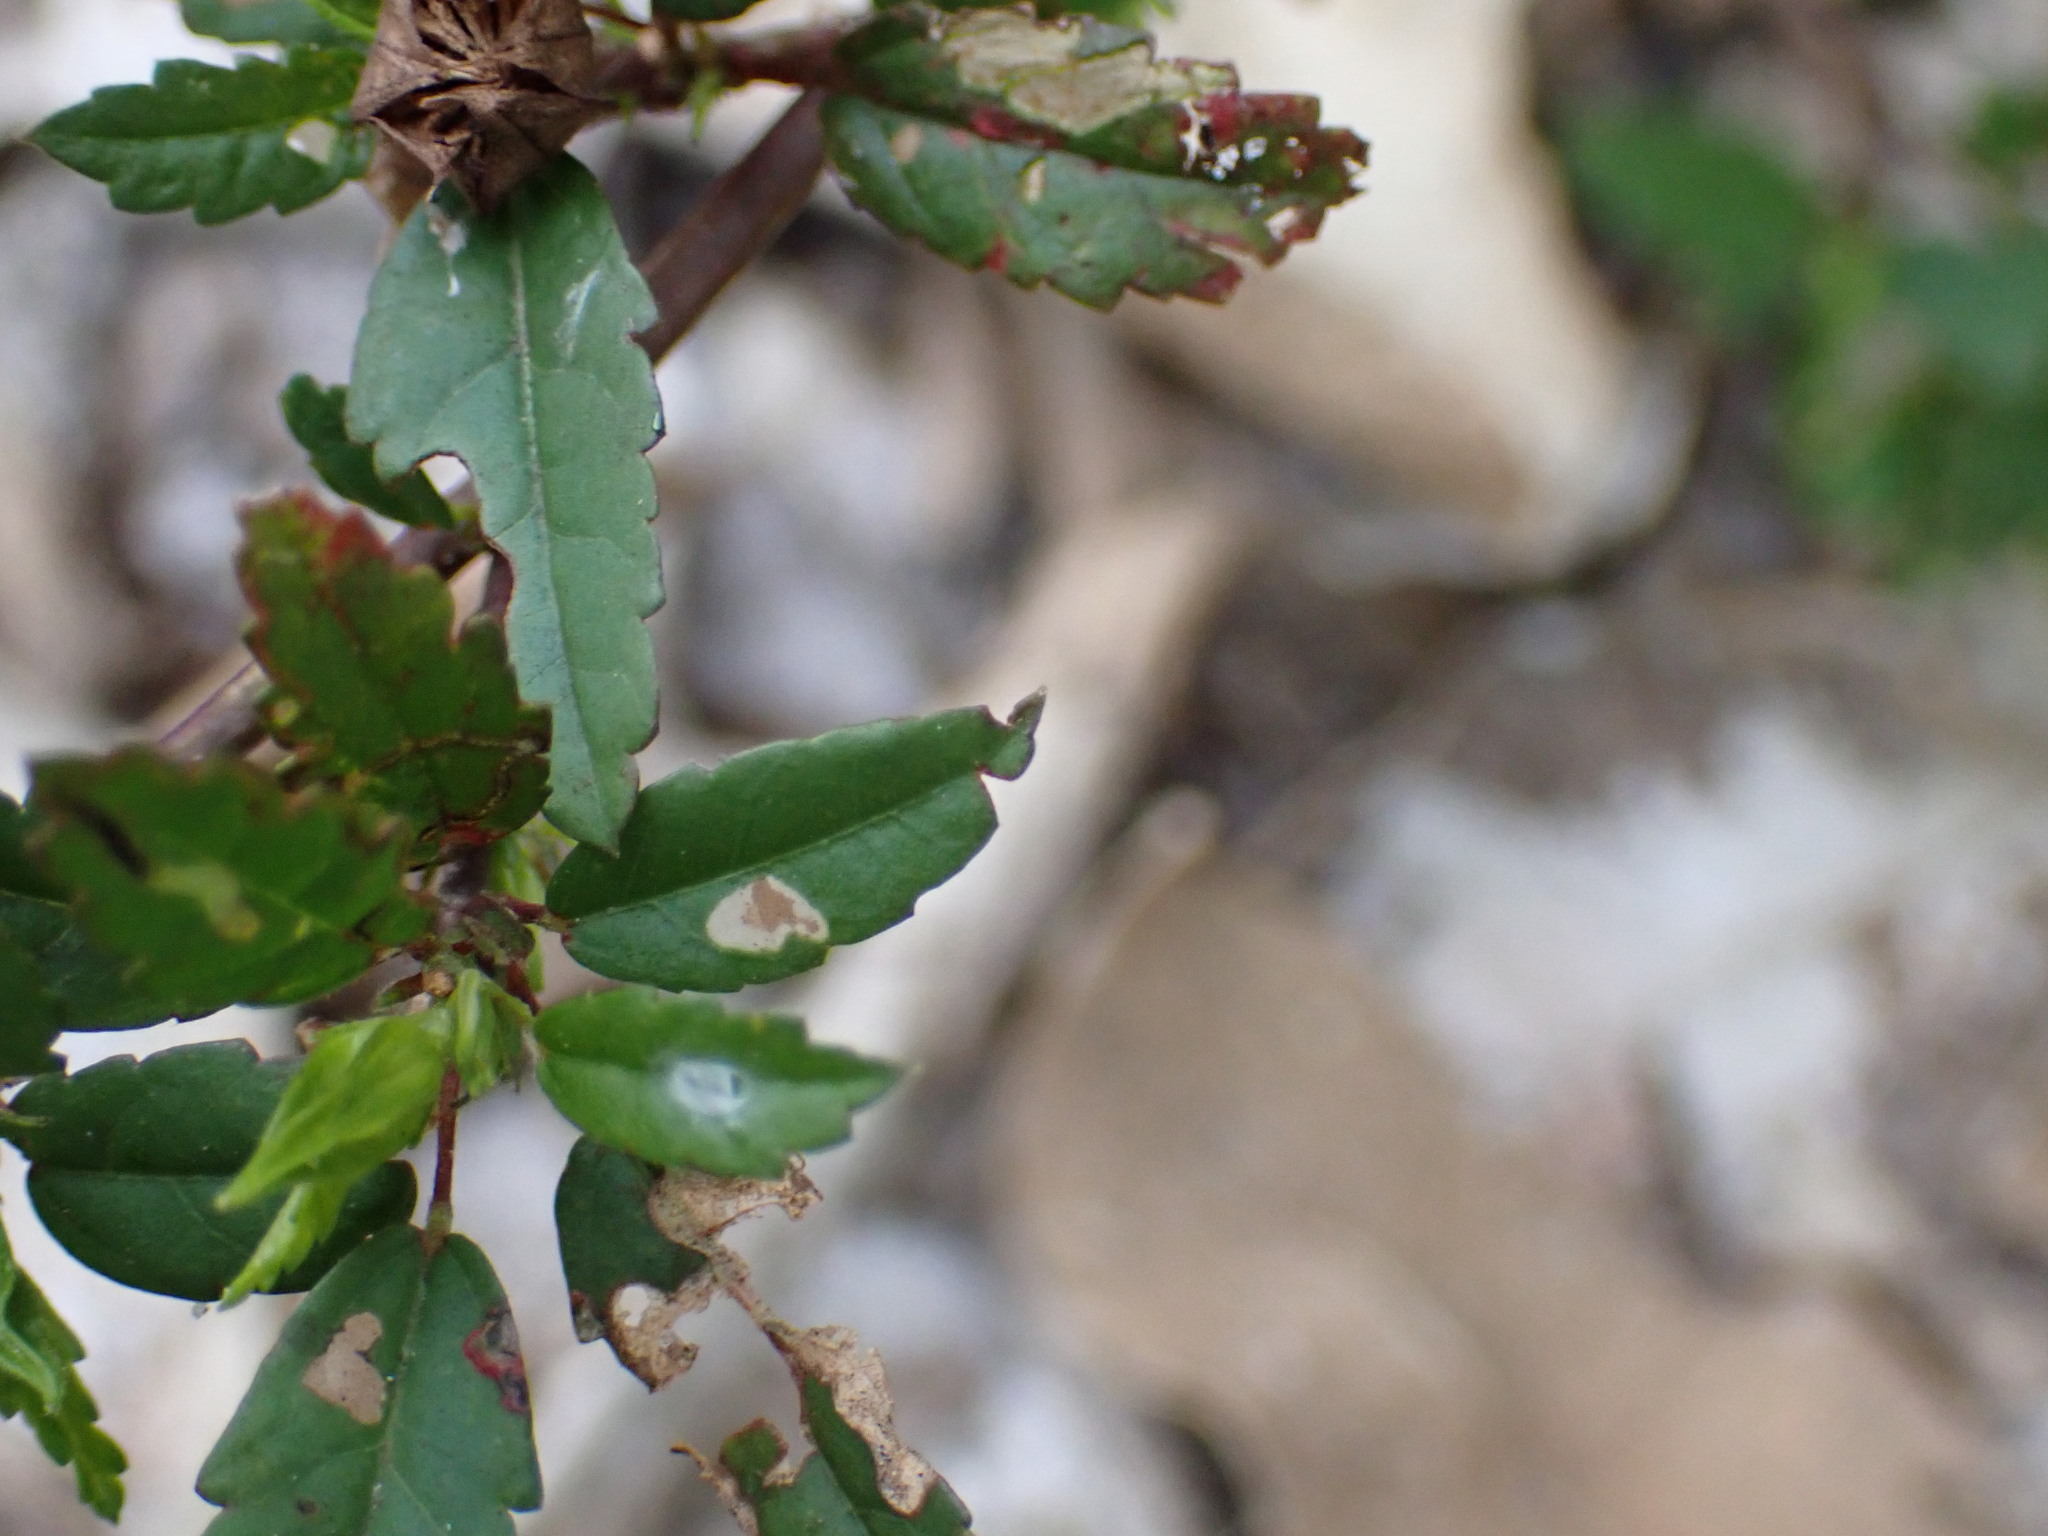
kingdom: Animalia
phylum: Arthropoda
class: Insecta
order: Diptera
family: Agromyzidae
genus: Calycomyza
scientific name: Calycomyza sidae
